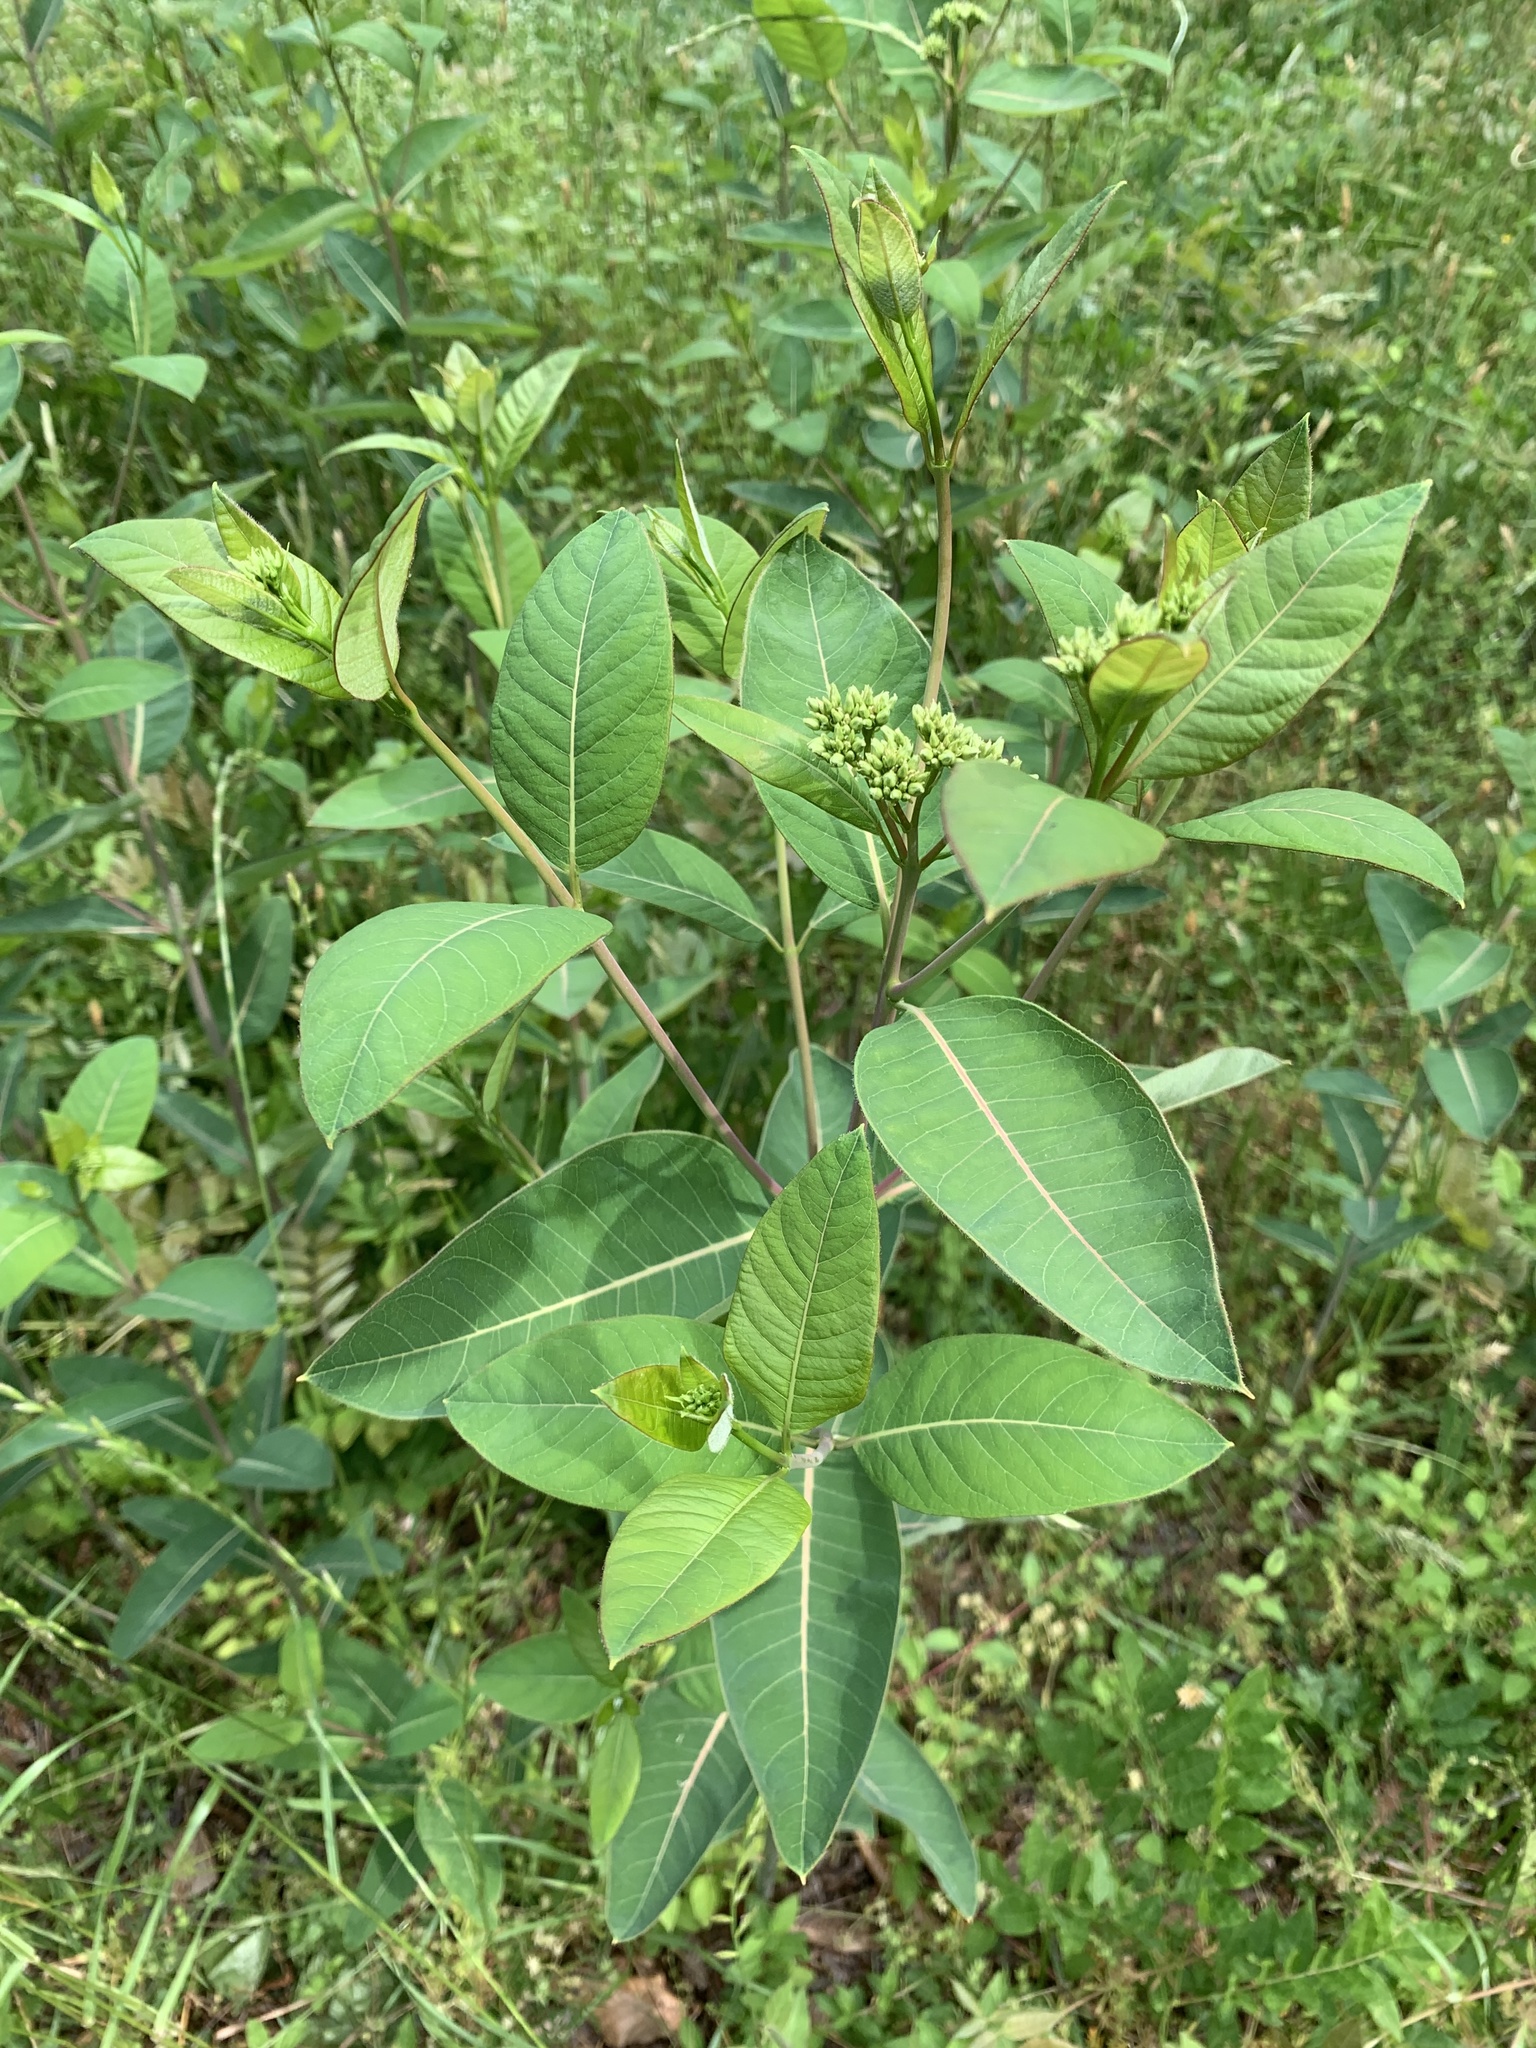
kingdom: Plantae
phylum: Tracheophyta
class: Magnoliopsida
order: Gentianales
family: Apocynaceae
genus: Apocynum
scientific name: Apocynum cannabinum
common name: Hemp dogbane
